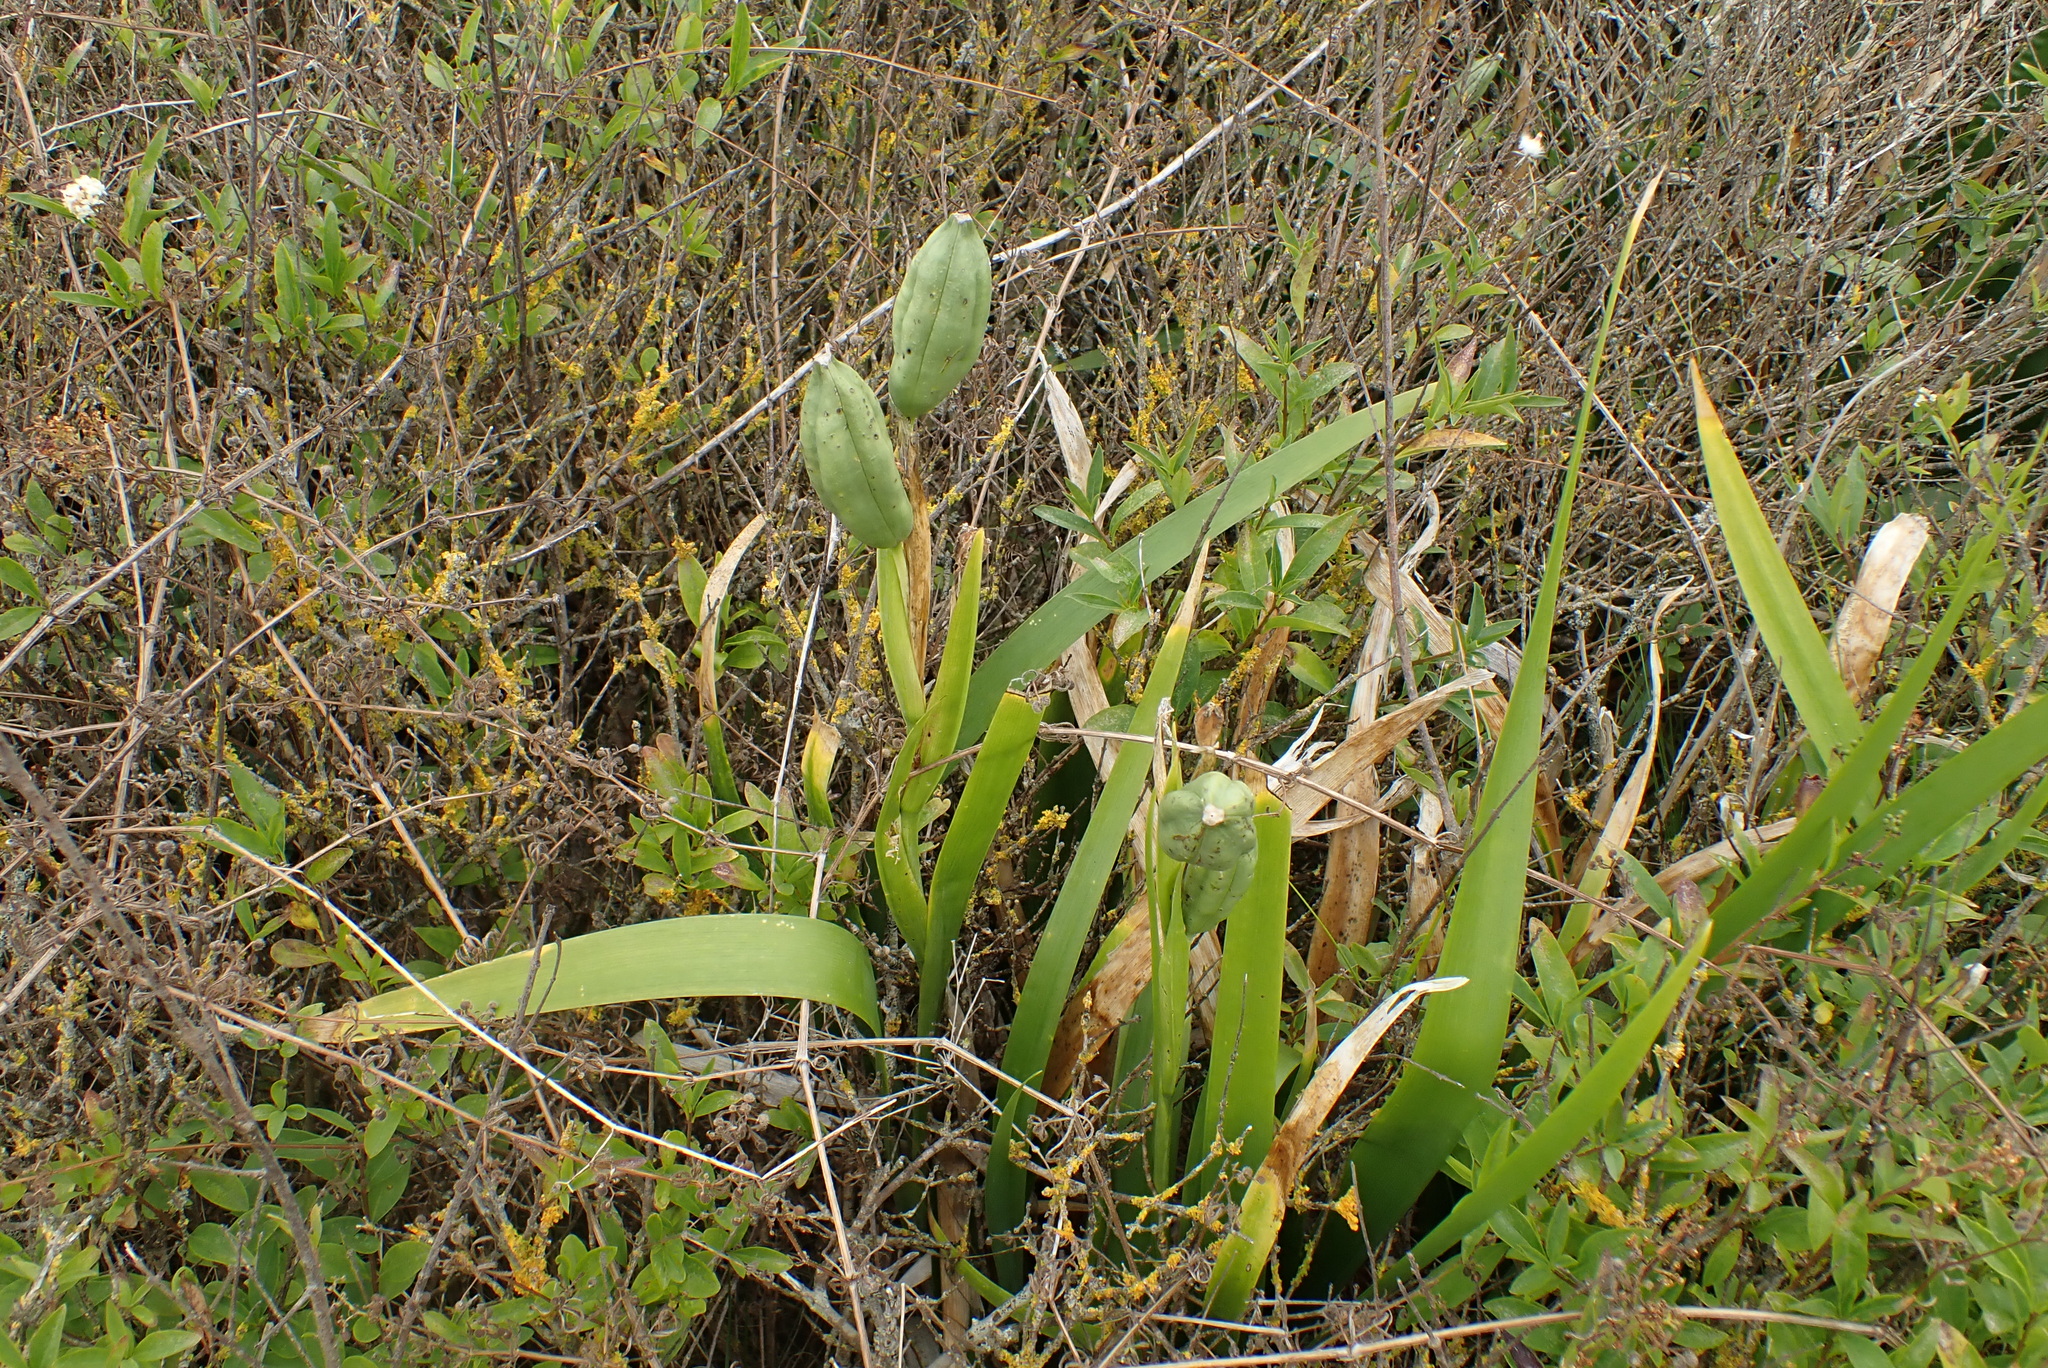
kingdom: Plantae
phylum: Tracheophyta
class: Liliopsida
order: Asparagales
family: Iridaceae
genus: Iris
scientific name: Iris foetidissima
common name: Stinking iris
